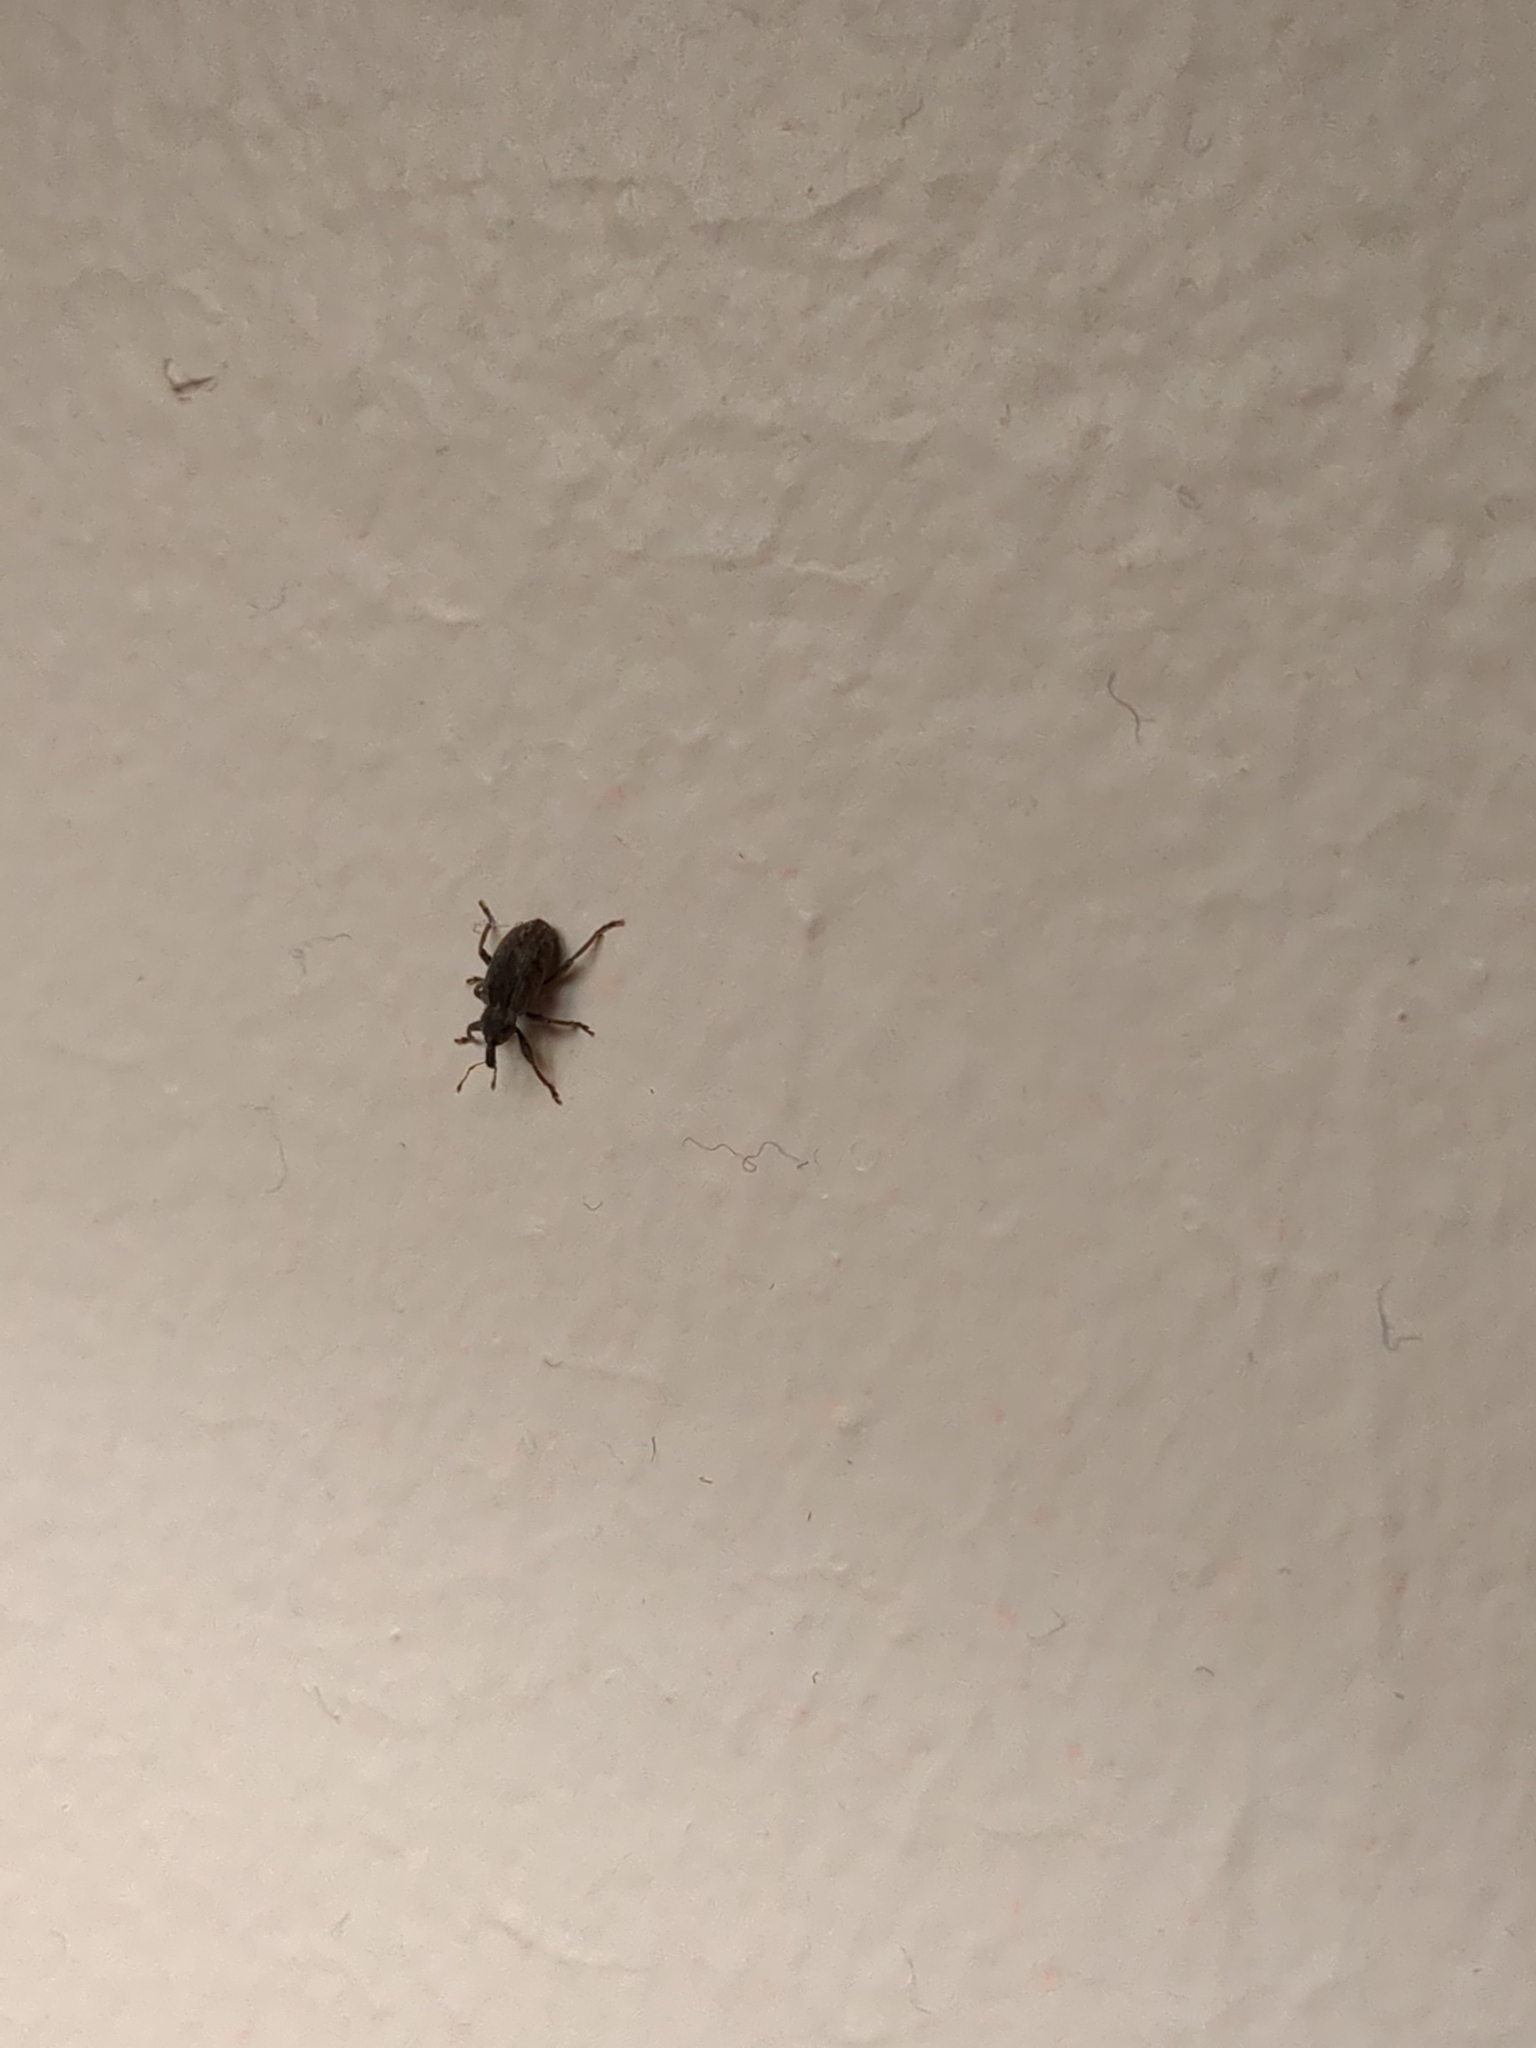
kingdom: Animalia
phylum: Arthropoda
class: Insecta
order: Coleoptera
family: Curculionidae
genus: Hypera
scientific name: Hypera postica
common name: Weevil
